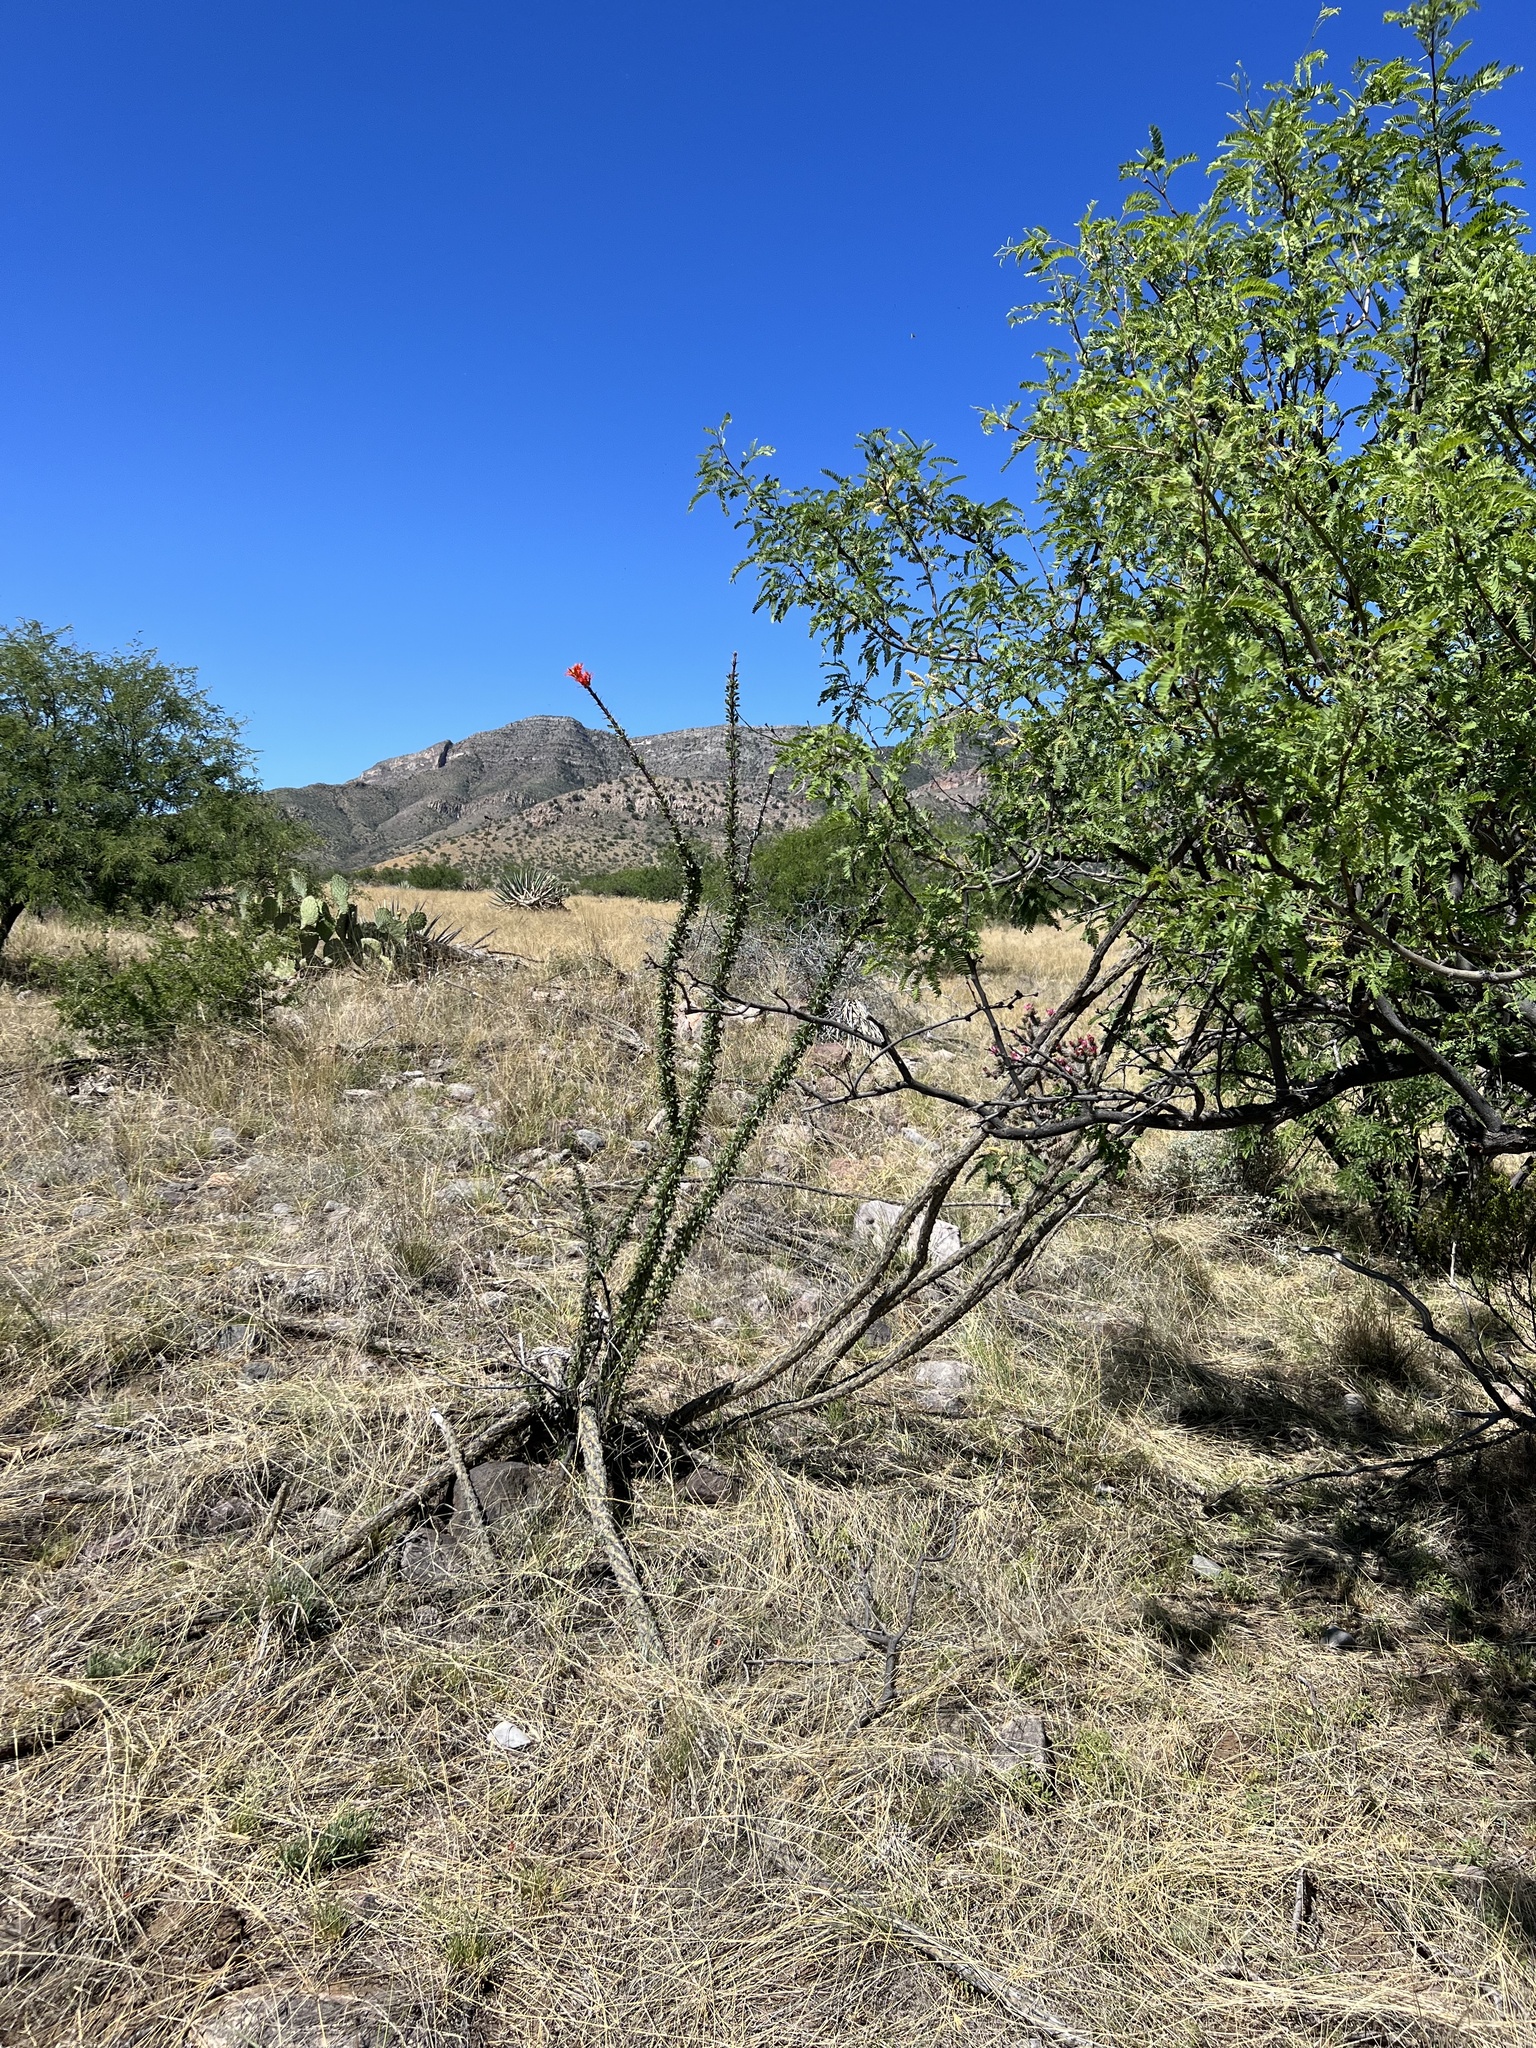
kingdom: Plantae
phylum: Tracheophyta
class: Magnoliopsida
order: Ericales
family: Fouquieriaceae
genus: Fouquieria
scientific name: Fouquieria splendens
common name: Vine-cactus
